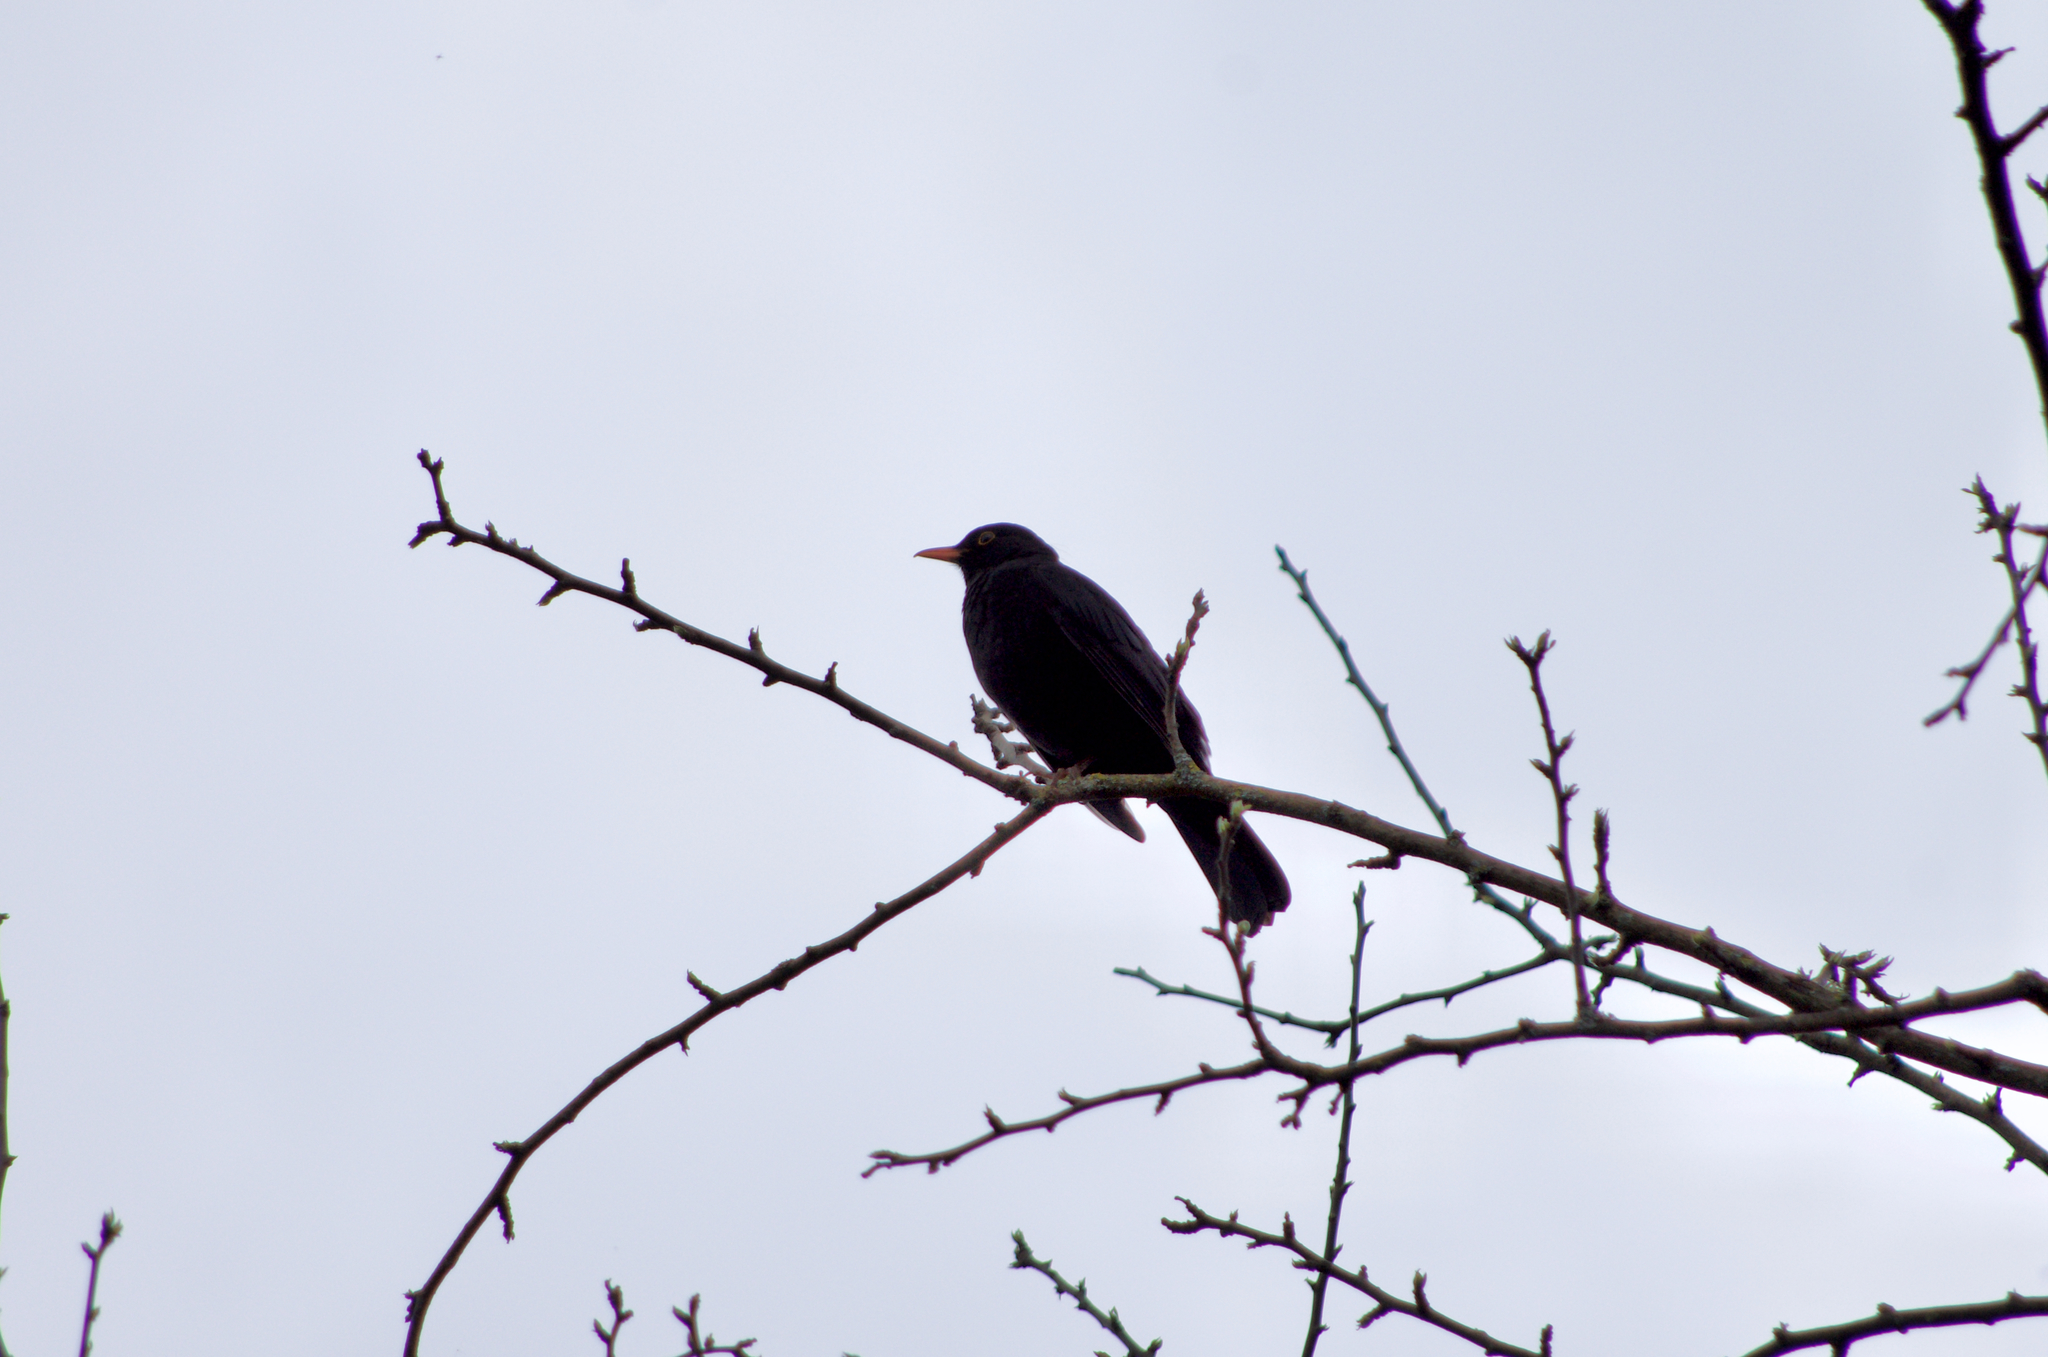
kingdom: Animalia
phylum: Chordata
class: Aves
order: Passeriformes
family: Turdidae
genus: Turdus
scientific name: Turdus merula
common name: Common blackbird
